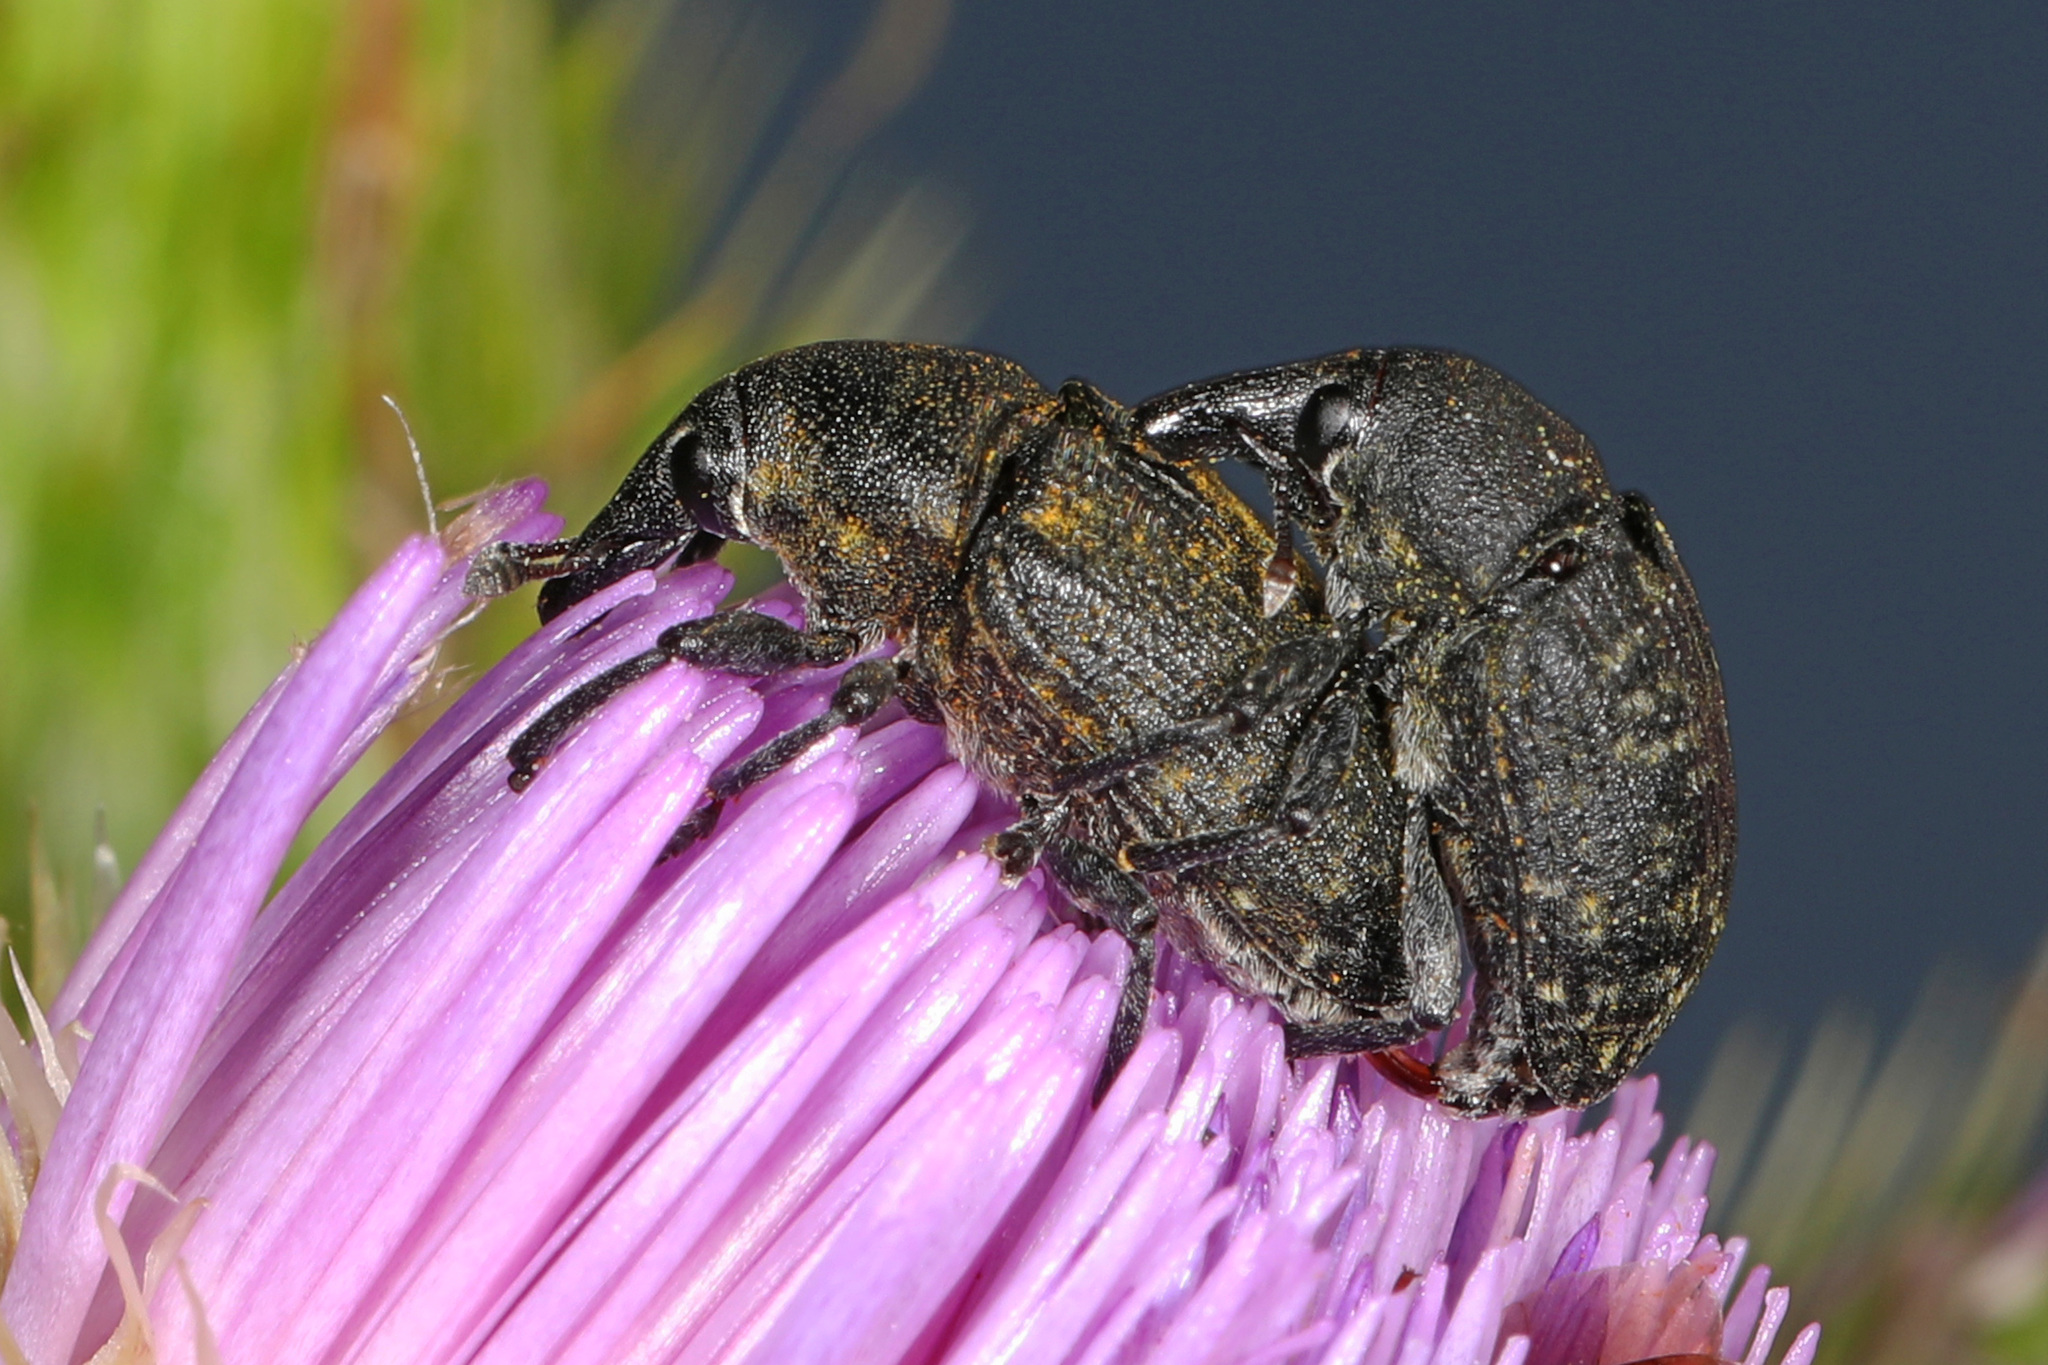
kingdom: Animalia
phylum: Arthropoda
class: Insecta
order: Coleoptera
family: Curculionidae
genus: Larinus
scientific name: Larinus turbinatus
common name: Weevil
